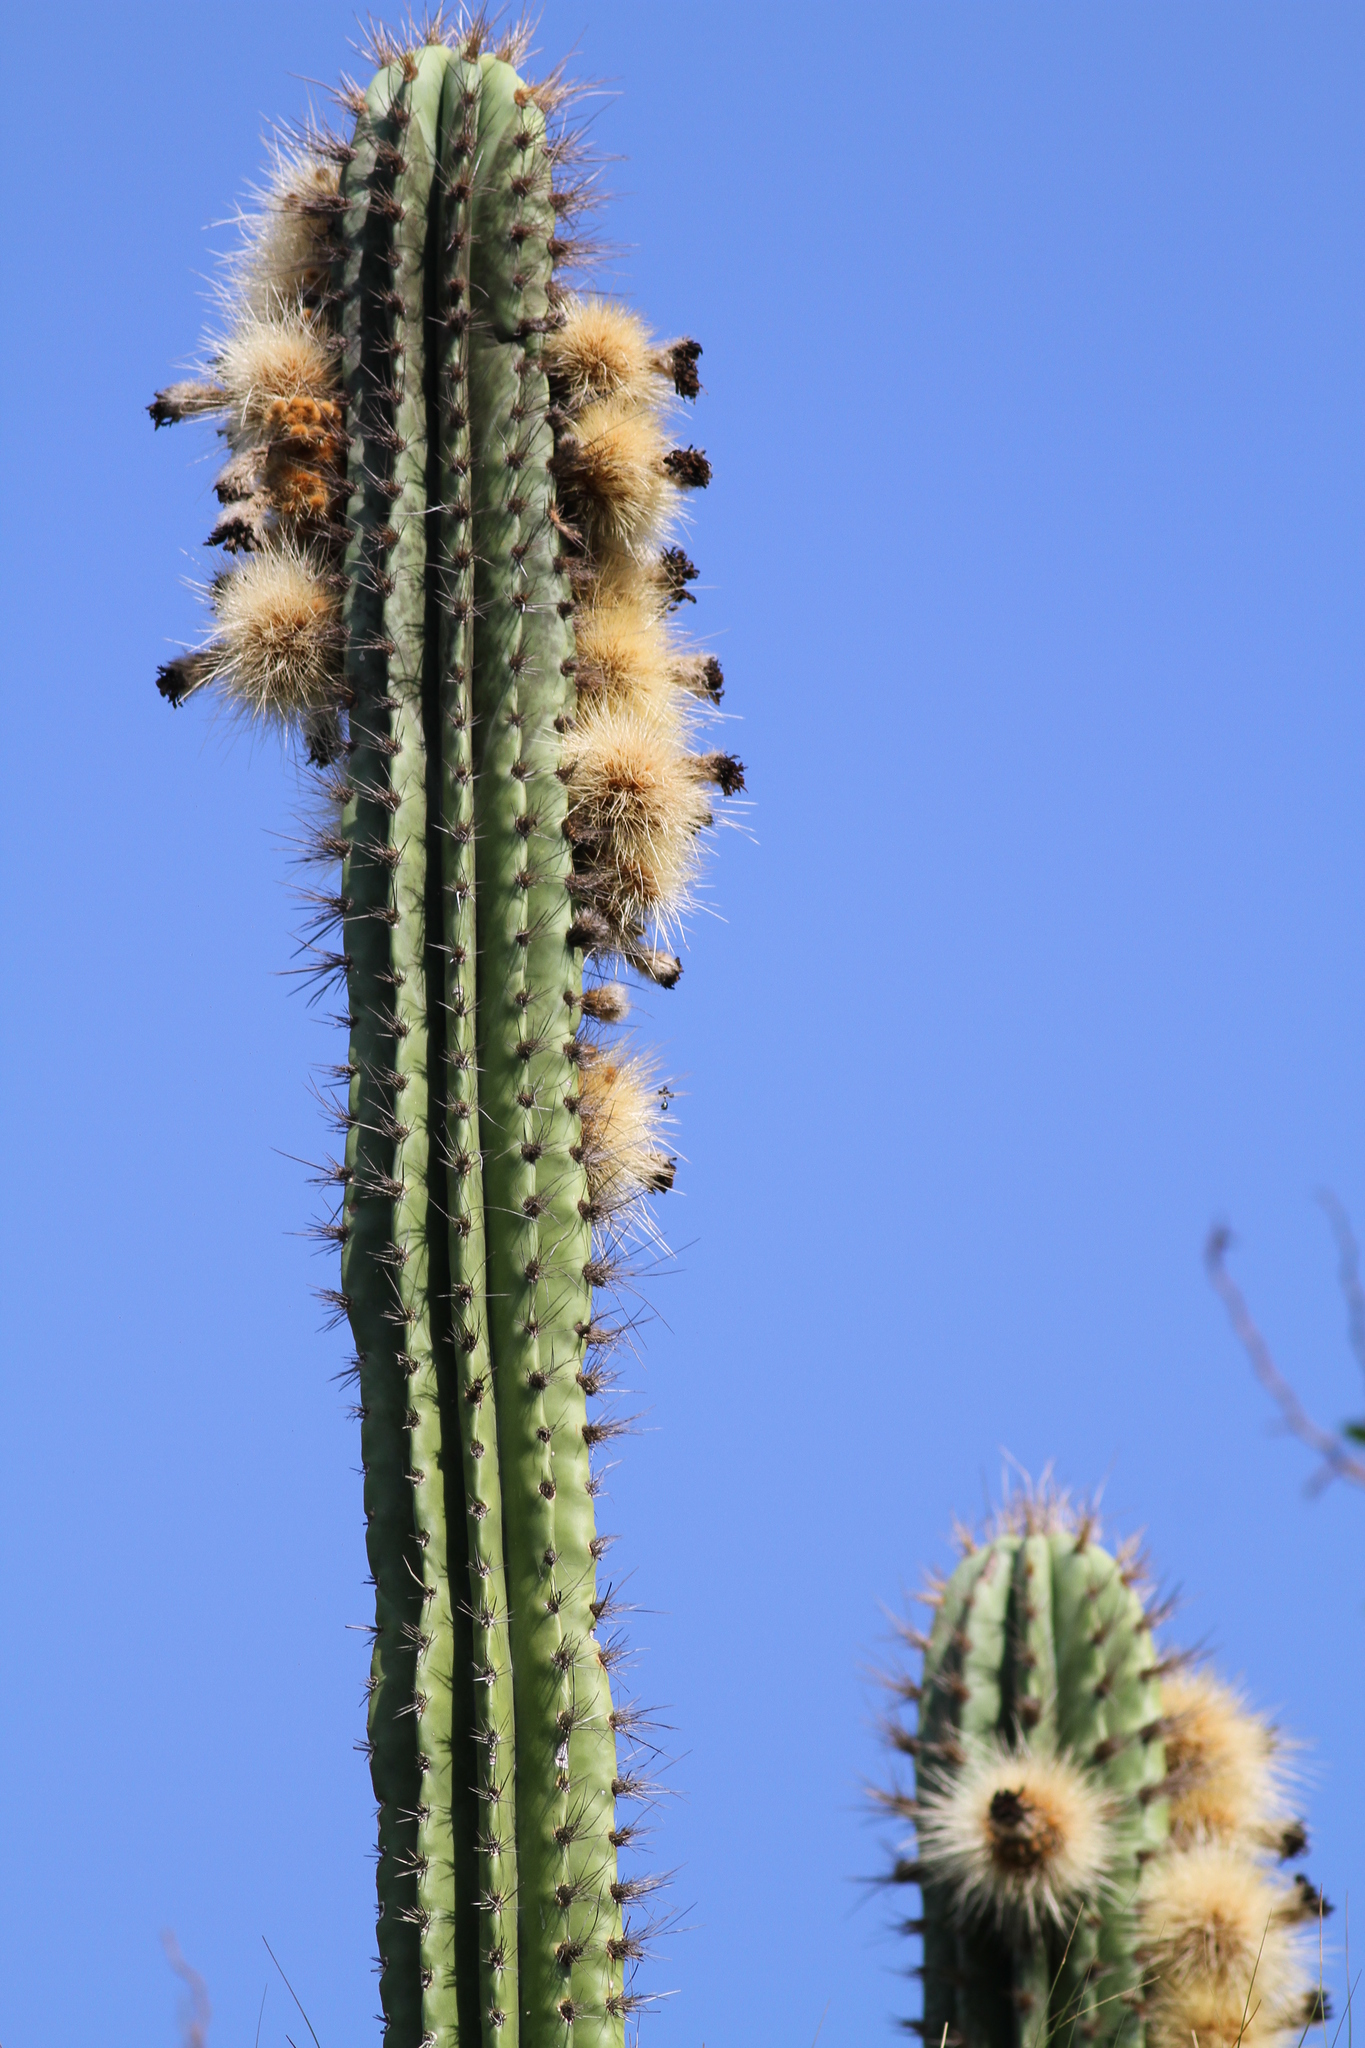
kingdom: Plantae
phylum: Tracheophyta
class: Magnoliopsida
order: Caryophyllales
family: Cactaceae
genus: Pachycereus
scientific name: Pachycereus pecten-aboriginum
